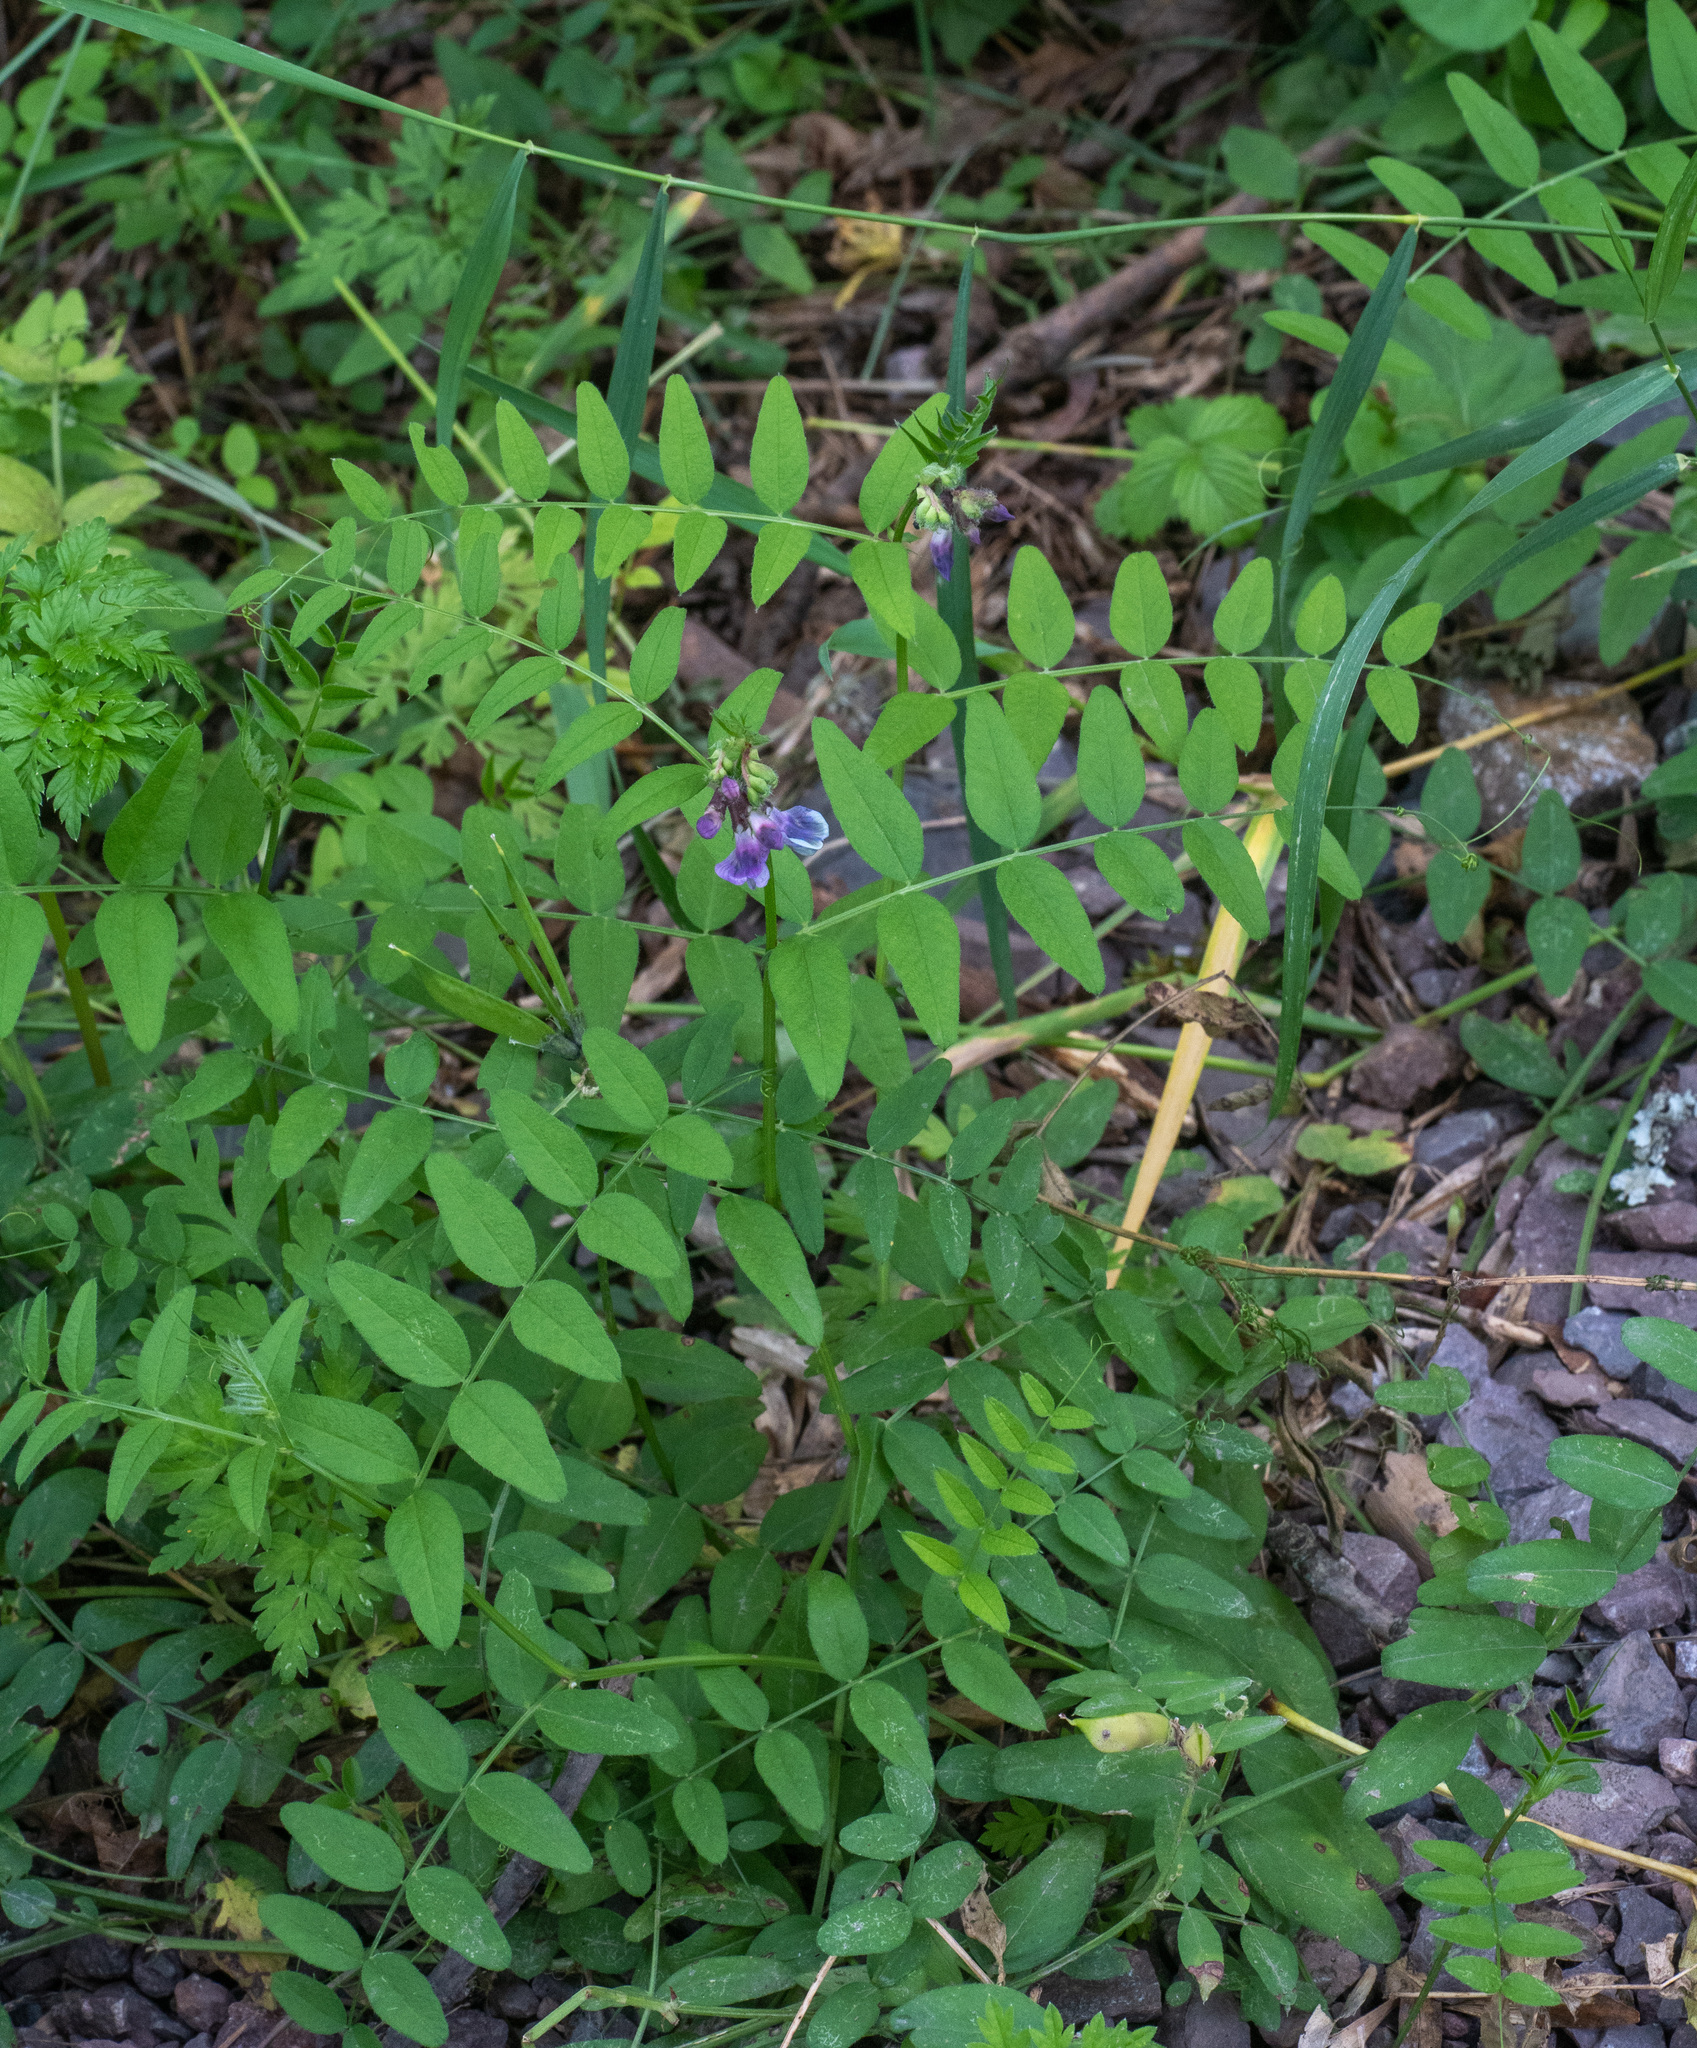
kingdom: Plantae
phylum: Tracheophyta
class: Magnoliopsida
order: Fabales
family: Fabaceae
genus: Vicia
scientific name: Vicia sepium
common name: Bush vetch
